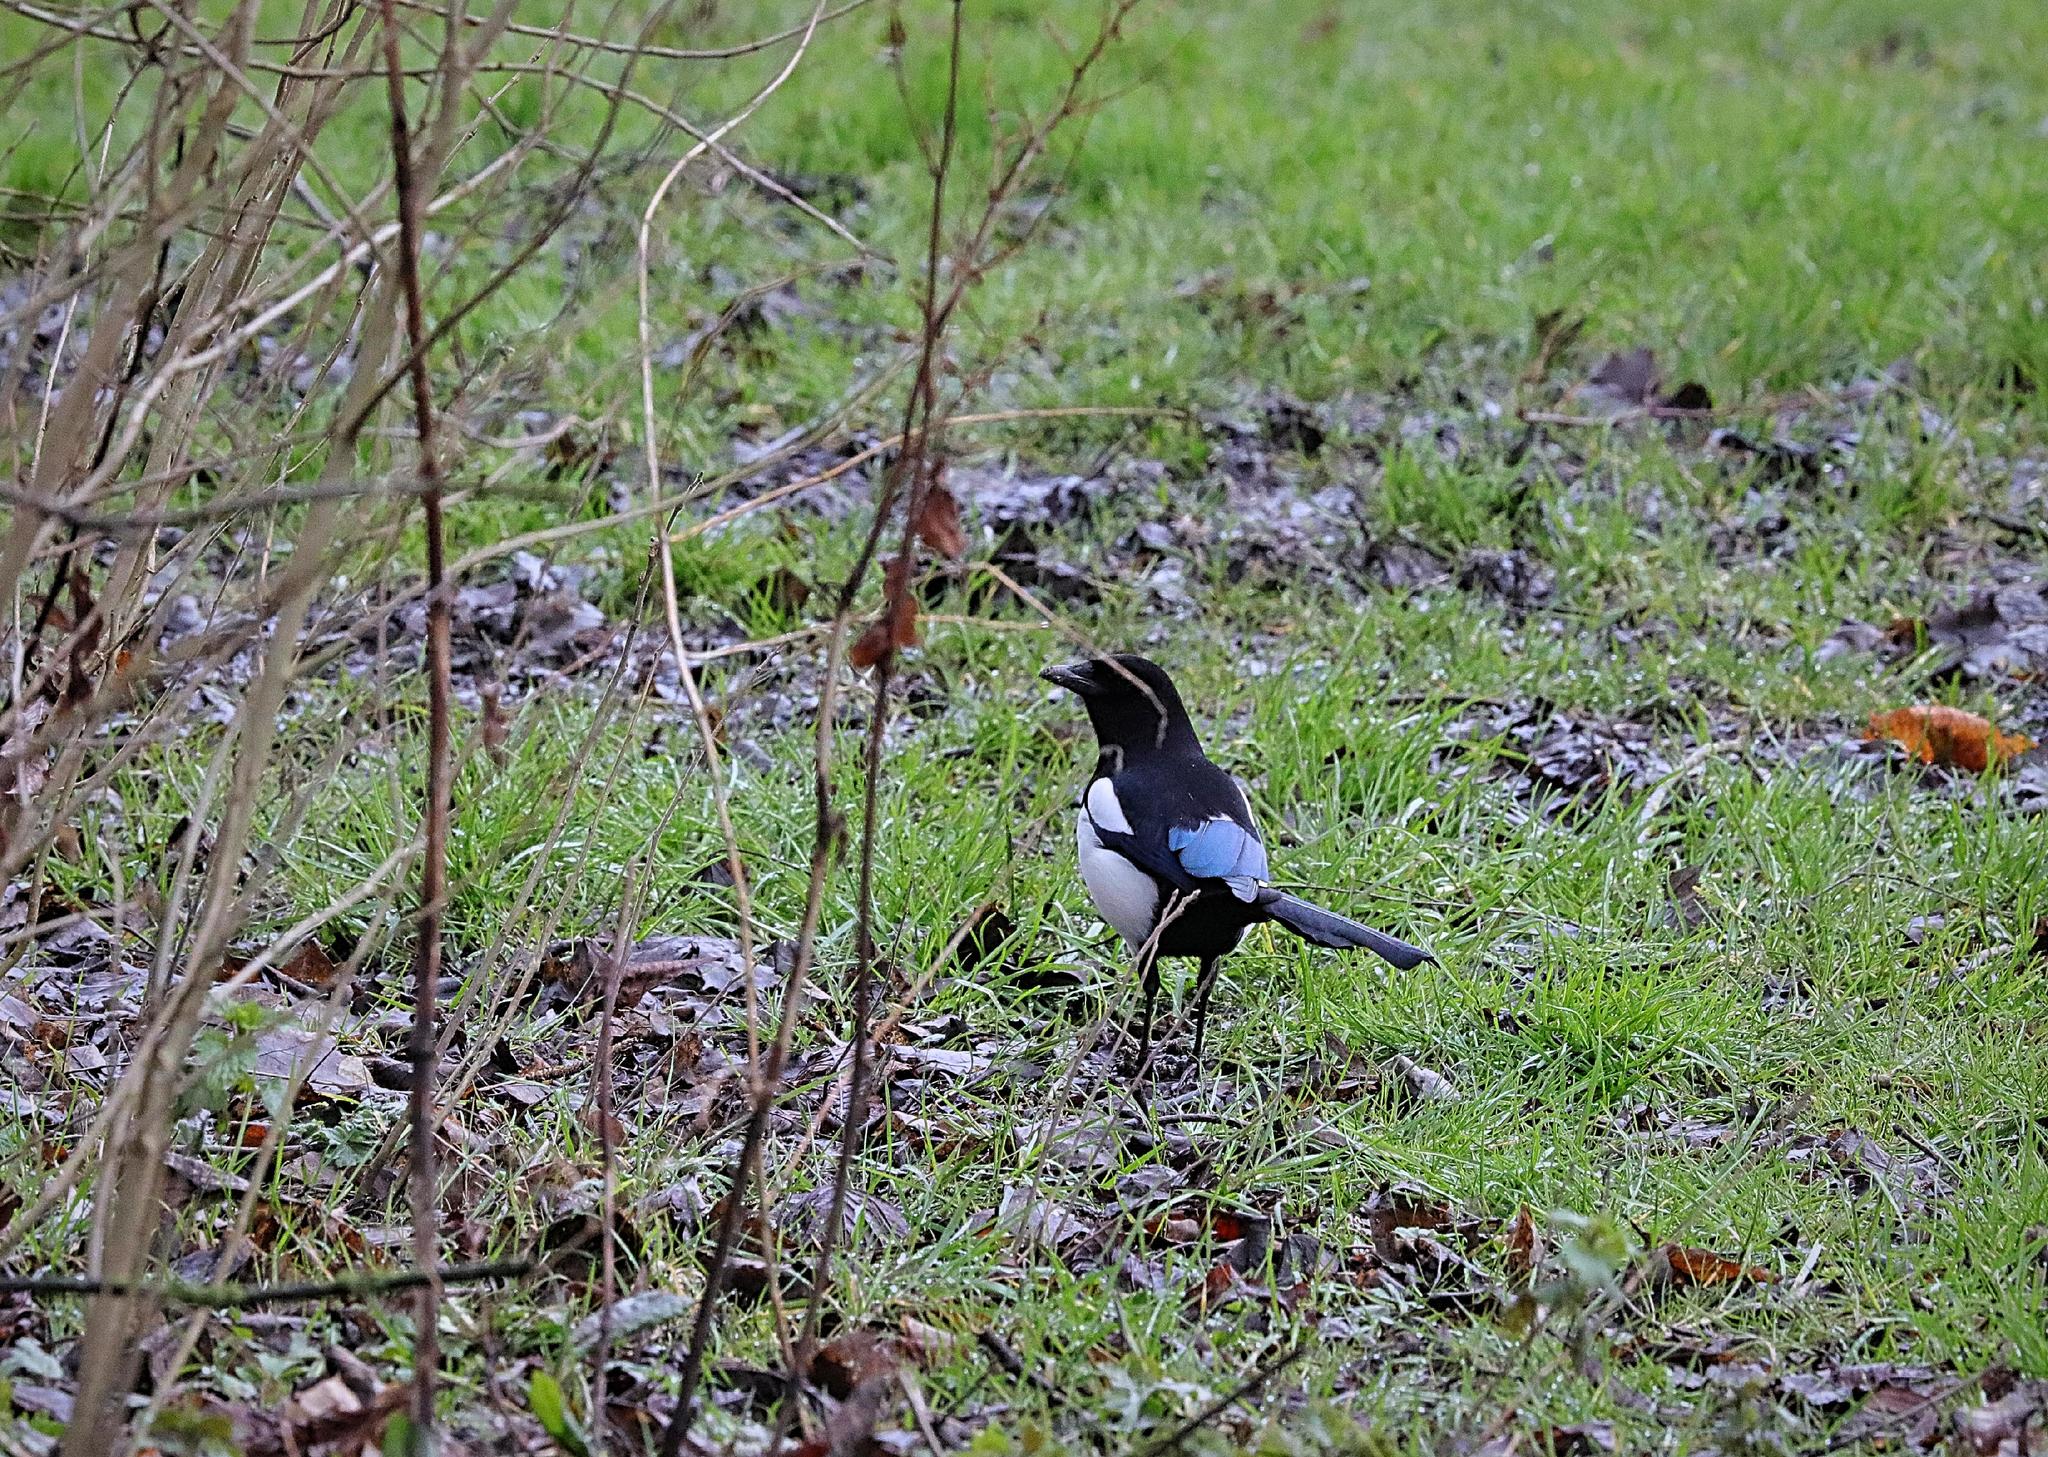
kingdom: Animalia
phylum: Chordata
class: Aves
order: Passeriformes
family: Corvidae
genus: Pica
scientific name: Pica pica
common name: Eurasian magpie
